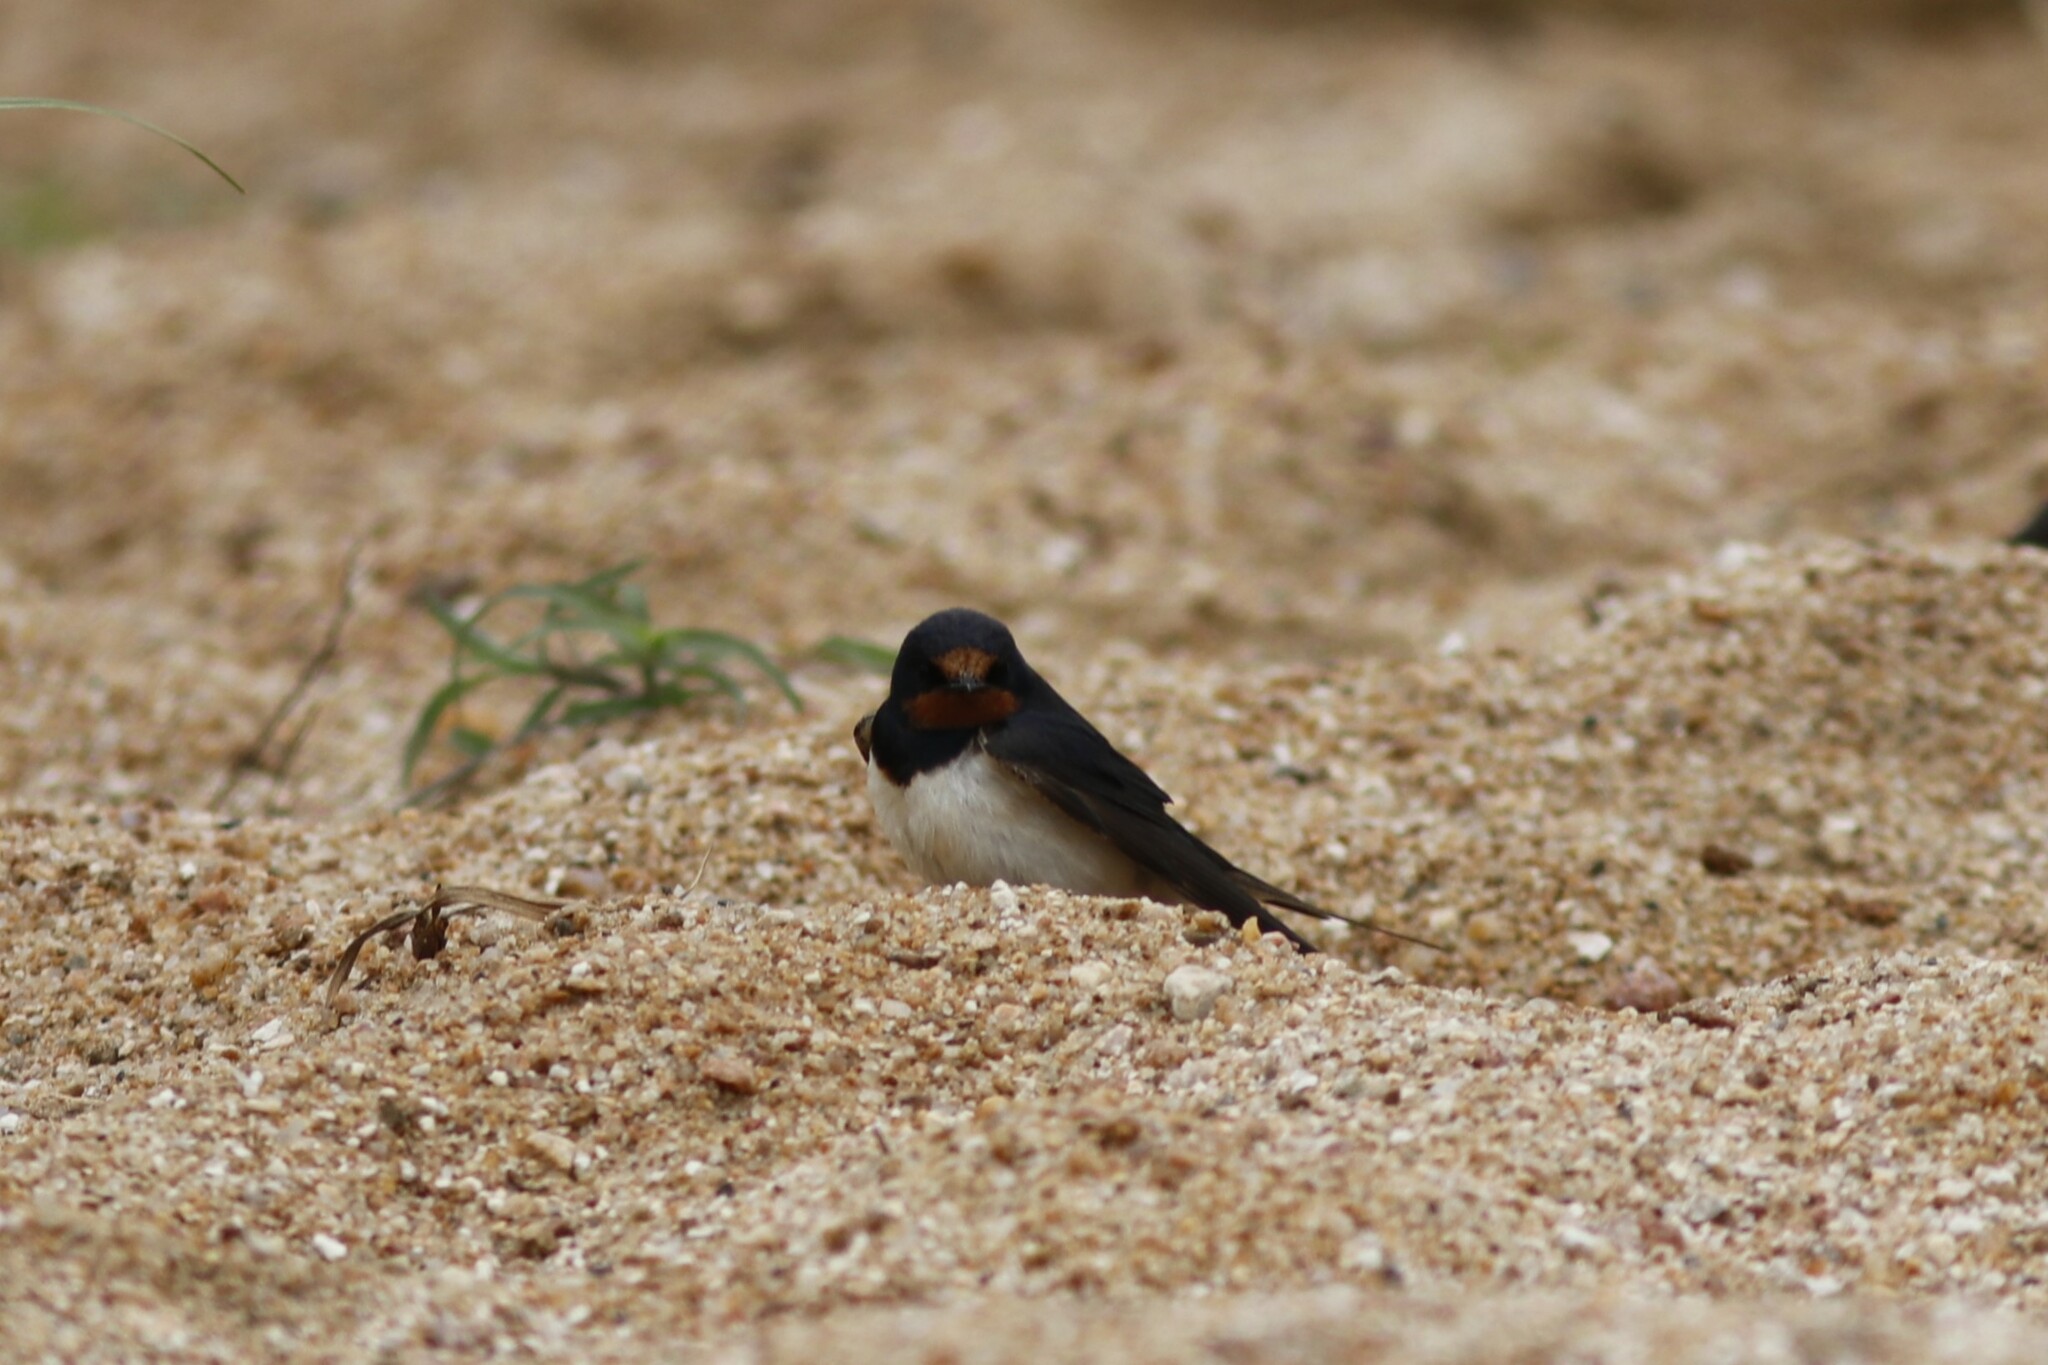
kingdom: Animalia
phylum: Chordata
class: Aves
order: Passeriformes
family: Hirundinidae
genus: Hirundo
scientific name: Hirundo rustica
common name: Barn swallow
